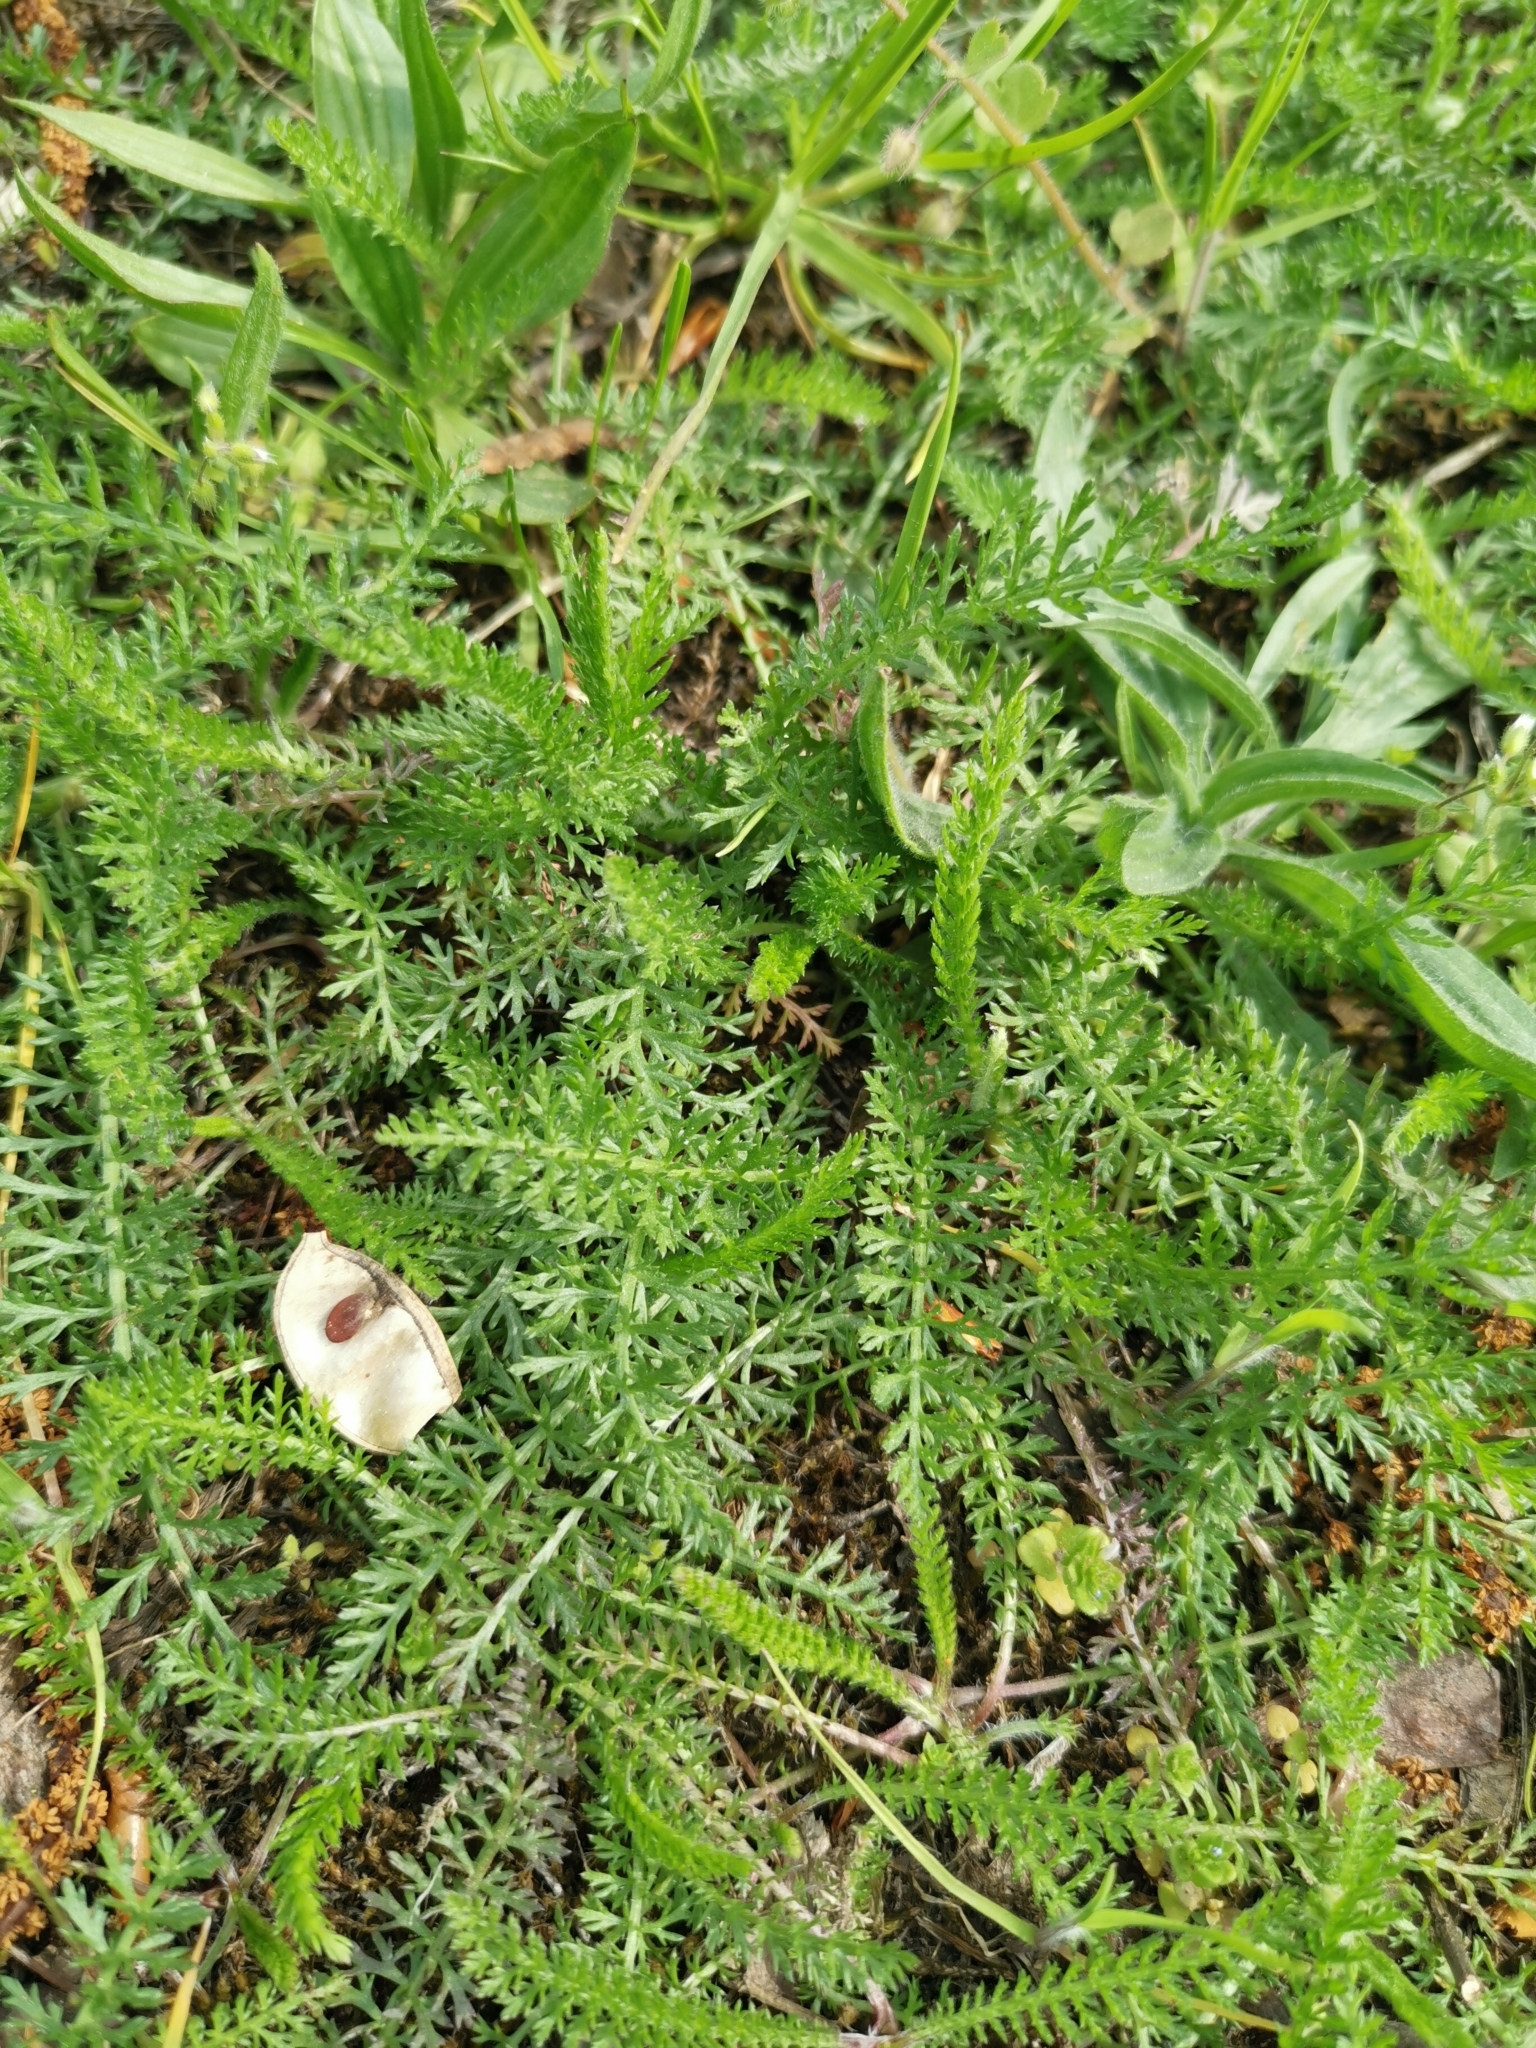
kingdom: Plantae
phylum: Tracheophyta
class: Magnoliopsida
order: Asterales
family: Asteraceae
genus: Achillea
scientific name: Achillea millefolium
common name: Yarrow
